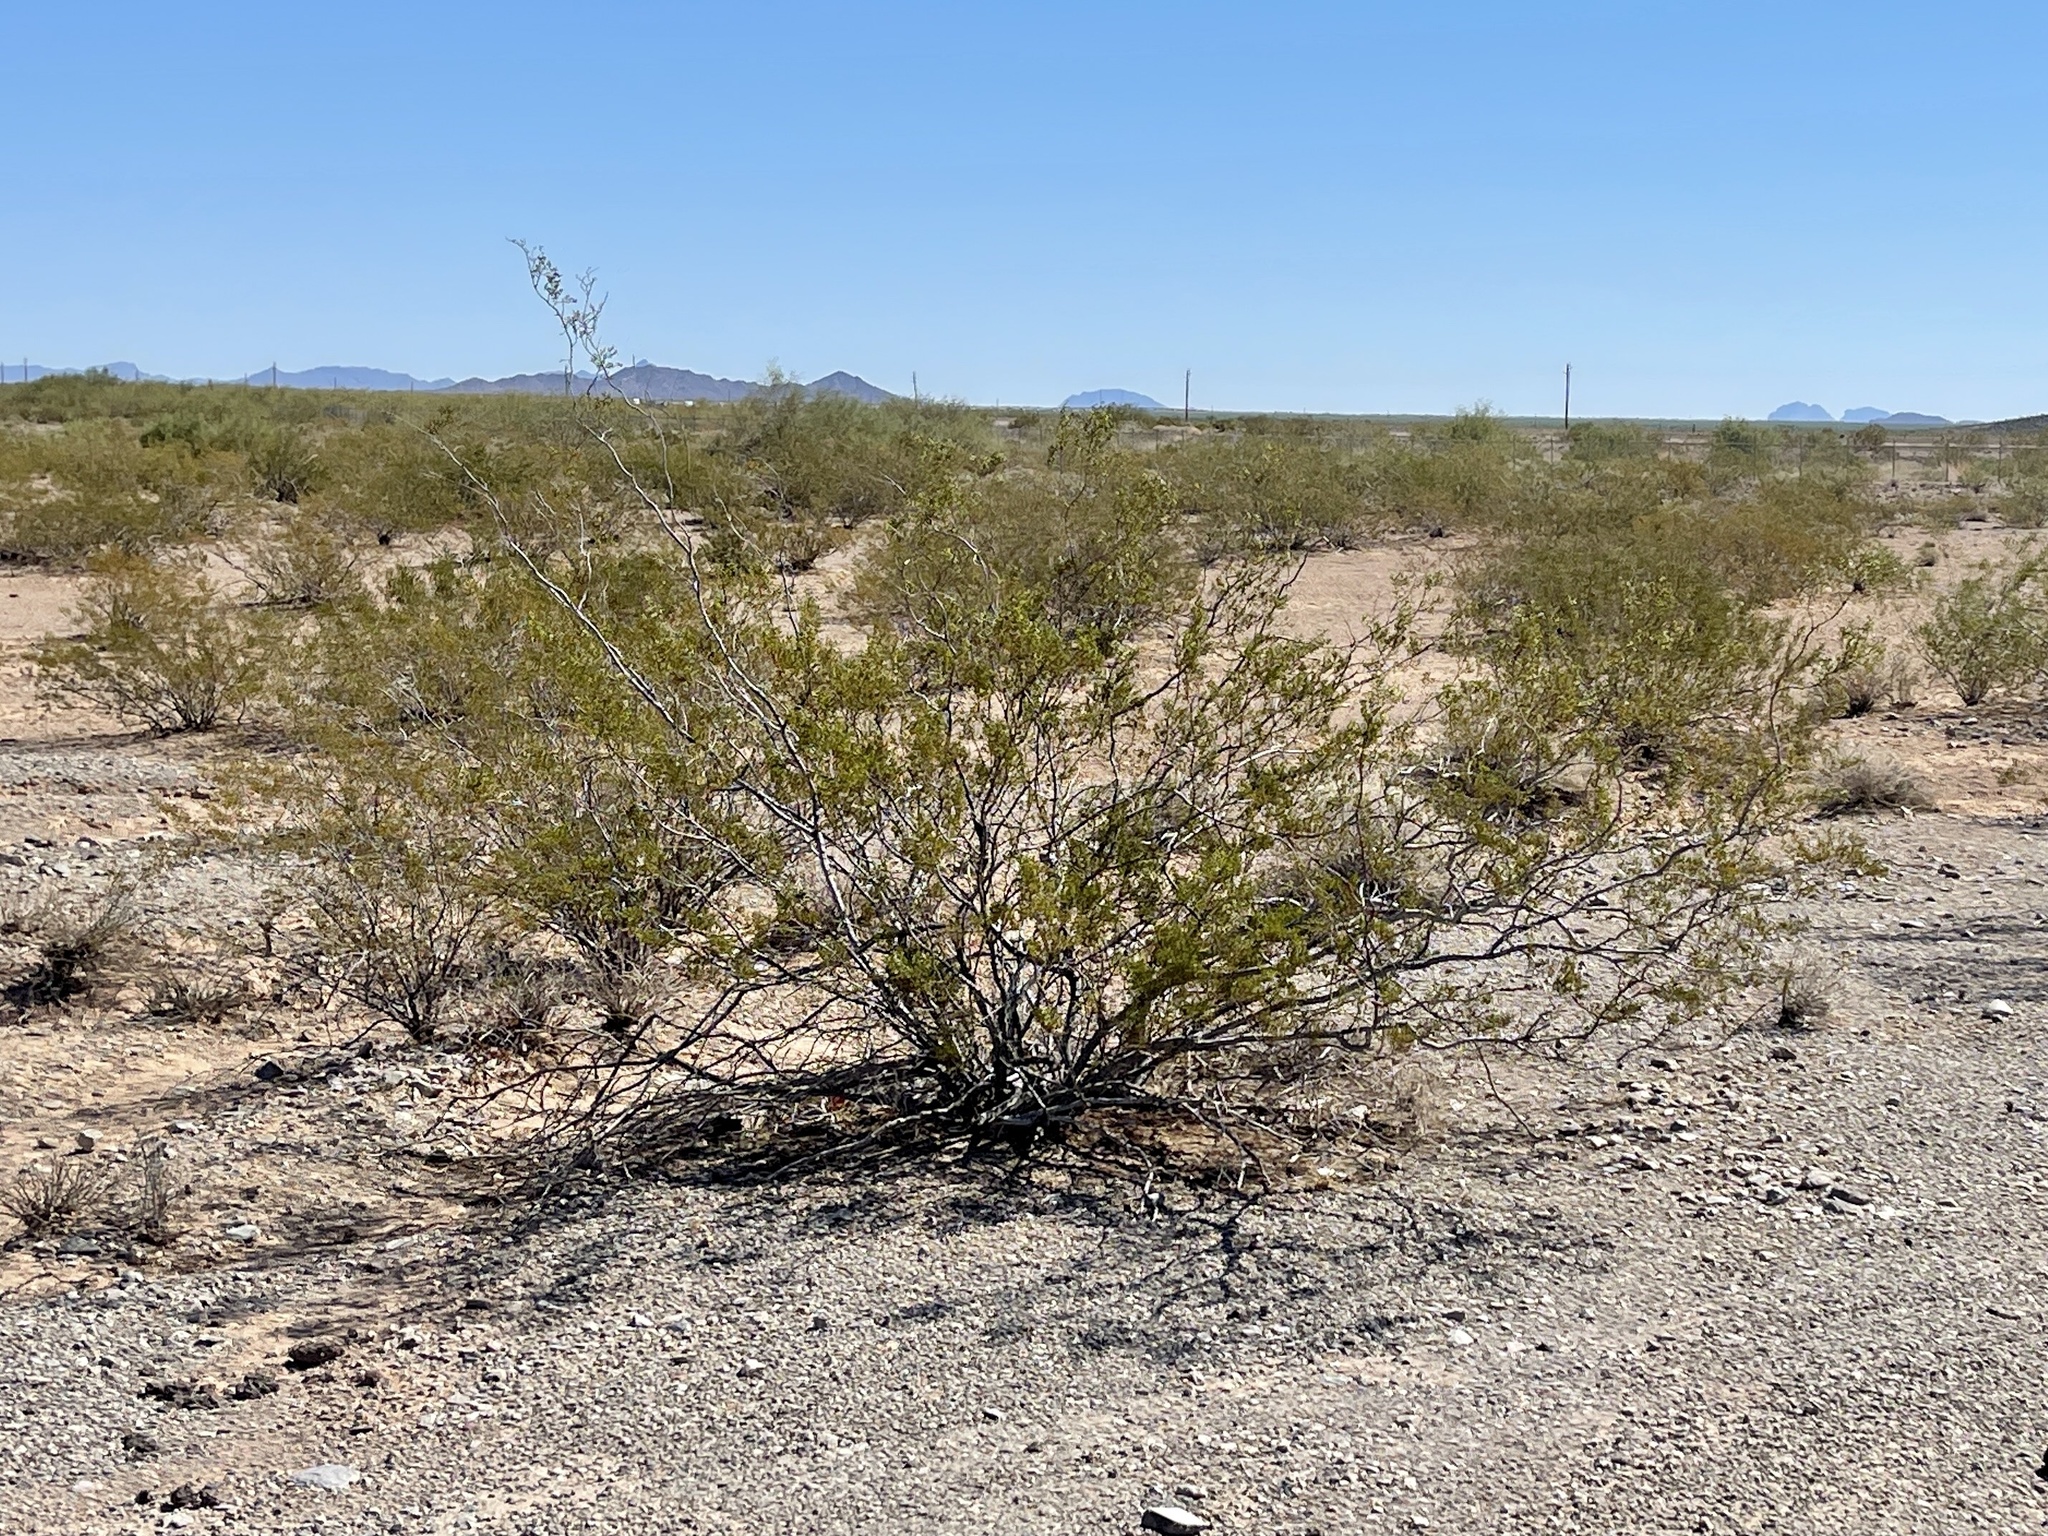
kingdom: Plantae
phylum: Tracheophyta
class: Magnoliopsida
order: Zygophyllales
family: Zygophyllaceae
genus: Larrea
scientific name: Larrea tridentata
